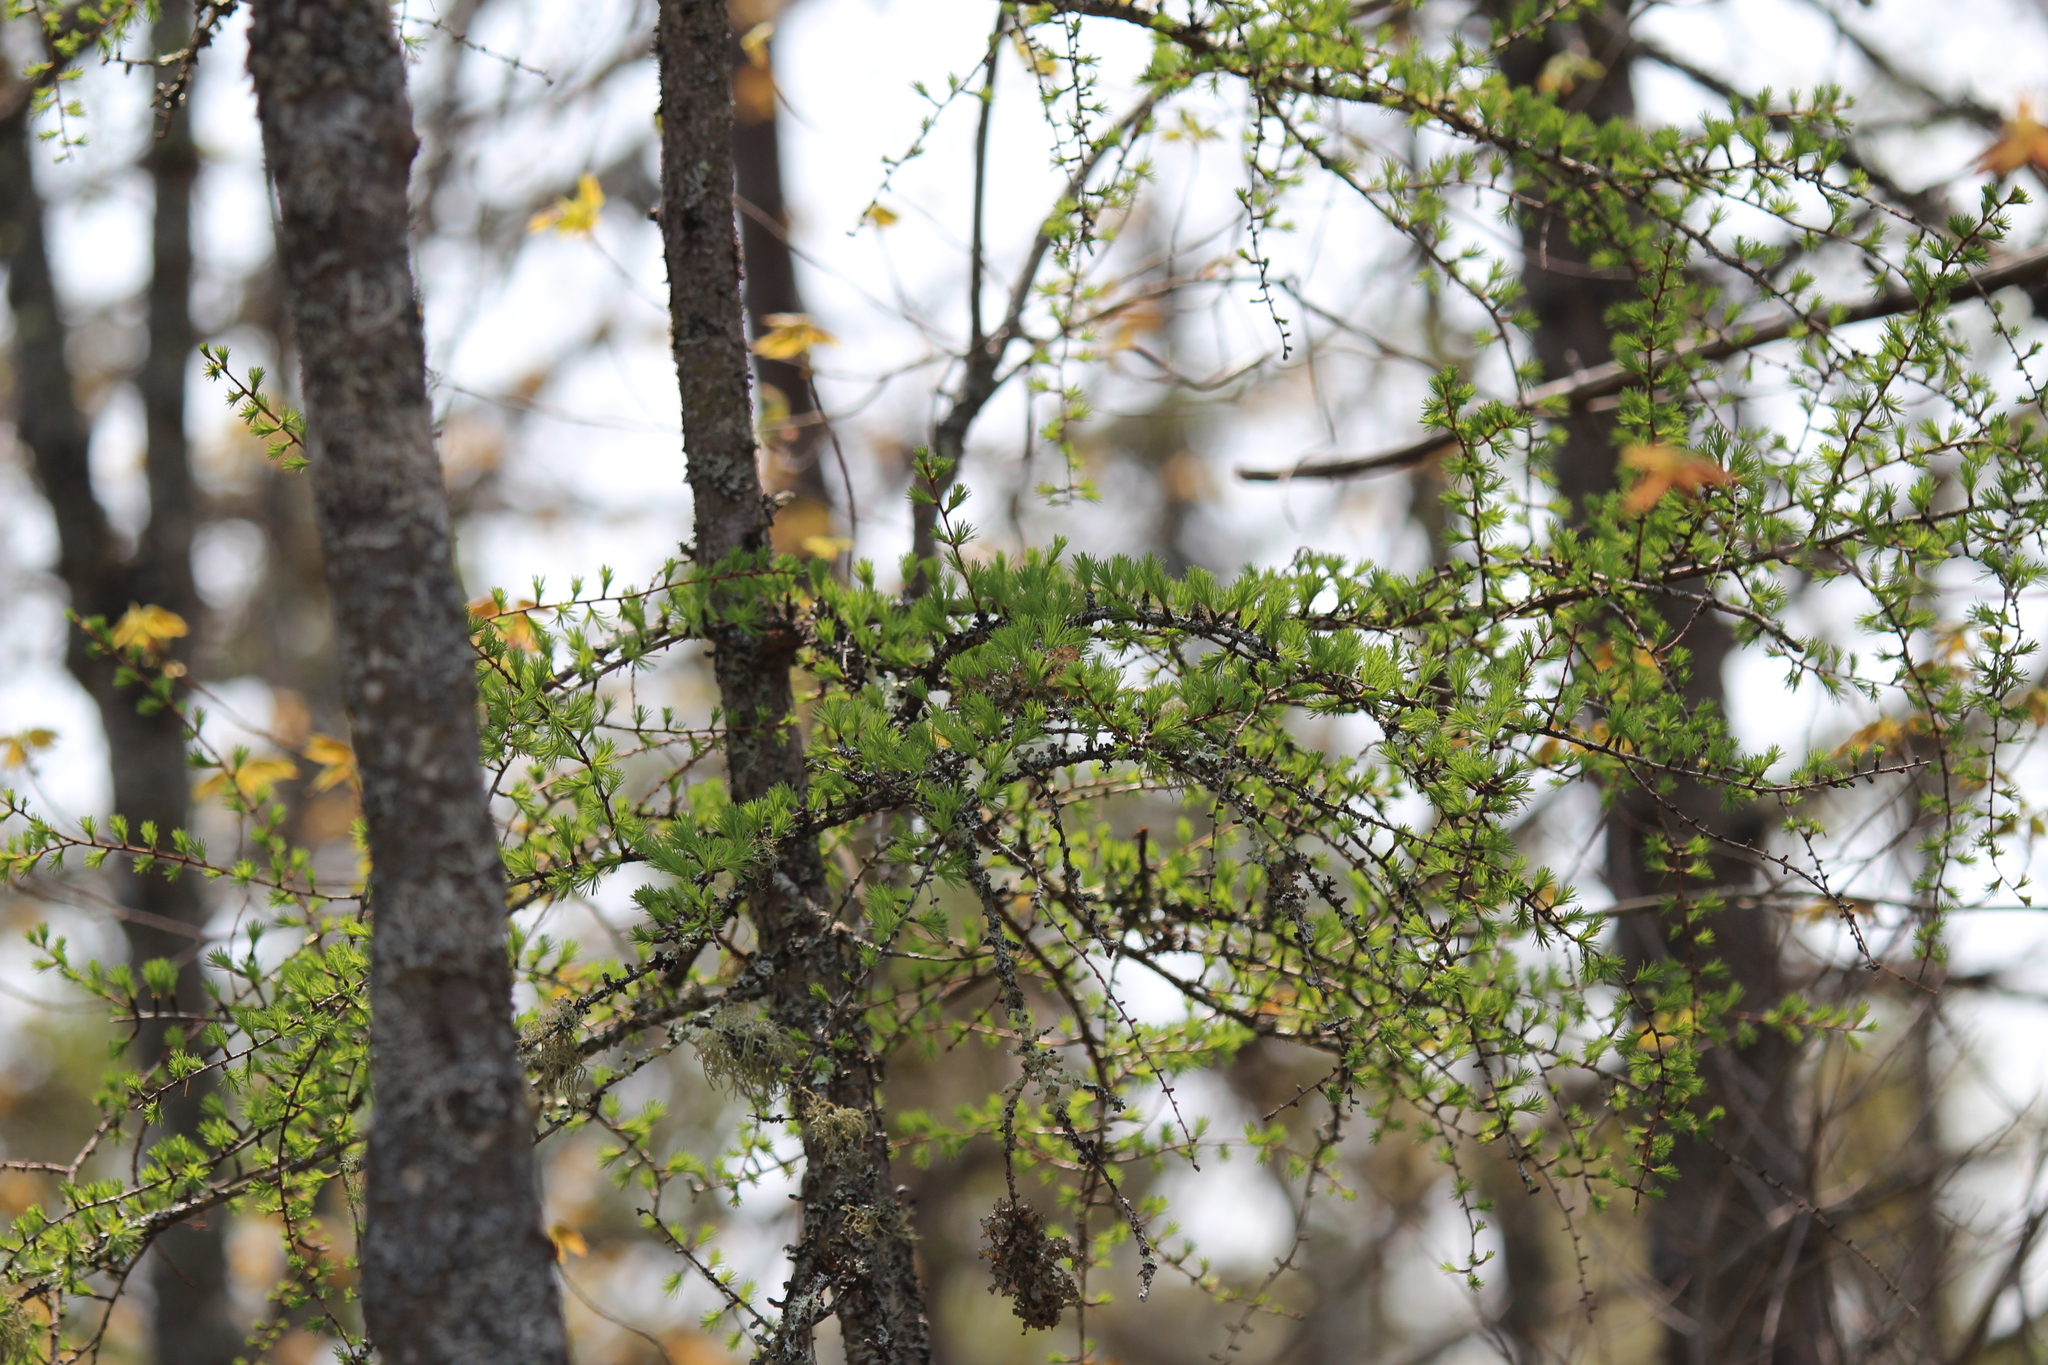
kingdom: Plantae
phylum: Tracheophyta
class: Pinopsida
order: Pinales
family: Pinaceae
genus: Larix
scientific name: Larix laricina
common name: American larch
